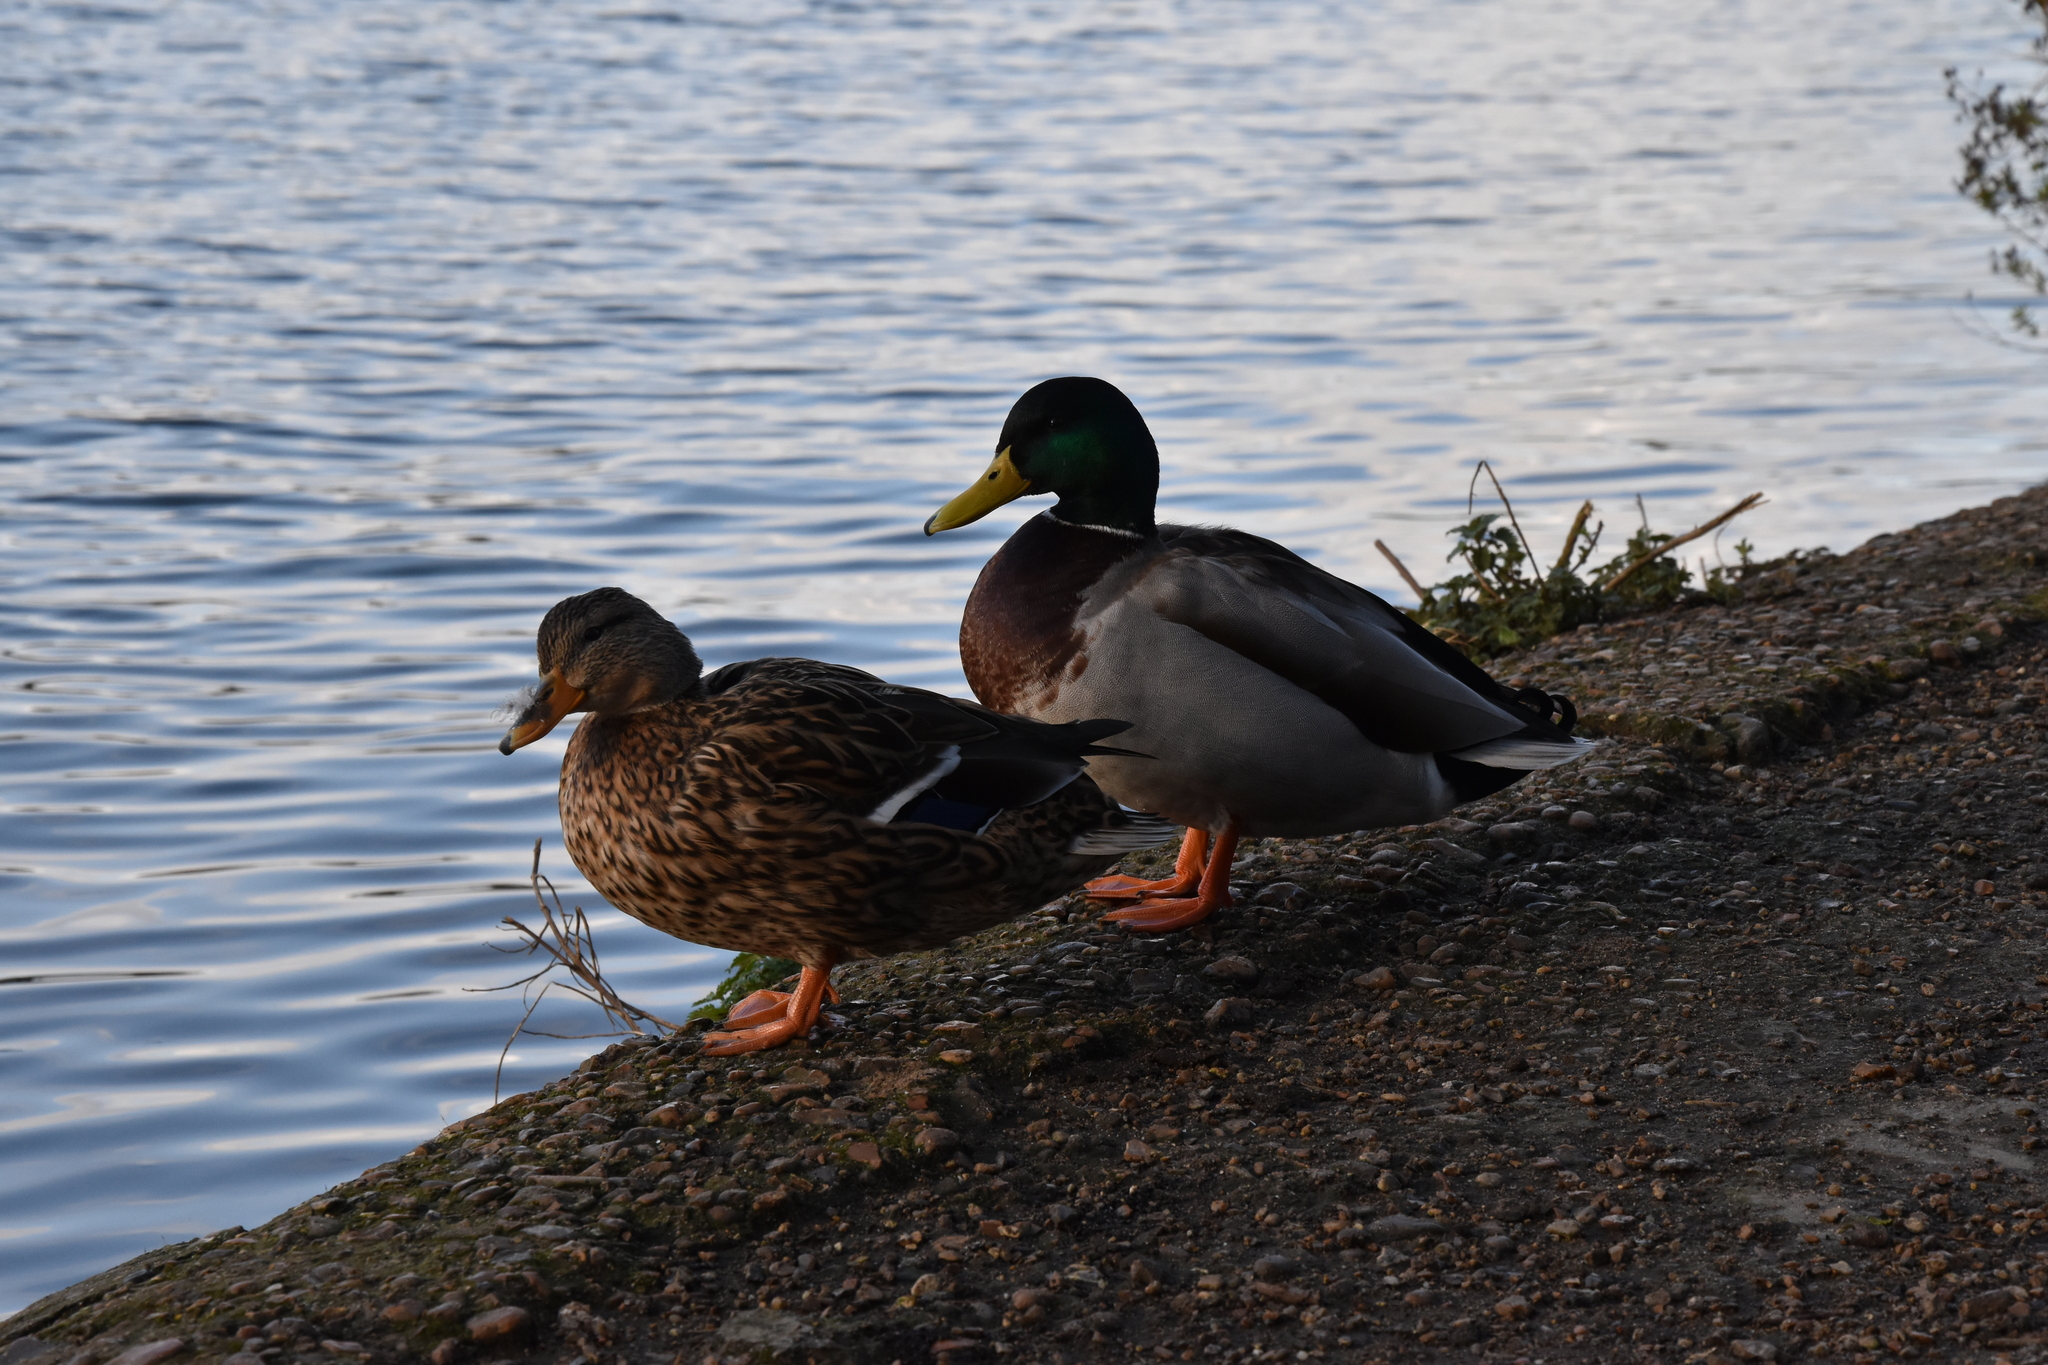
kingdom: Animalia
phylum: Chordata
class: Aves
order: Anseriformes
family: Anatidae
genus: Anas
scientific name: Anas platyrhynchos
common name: Mallard
